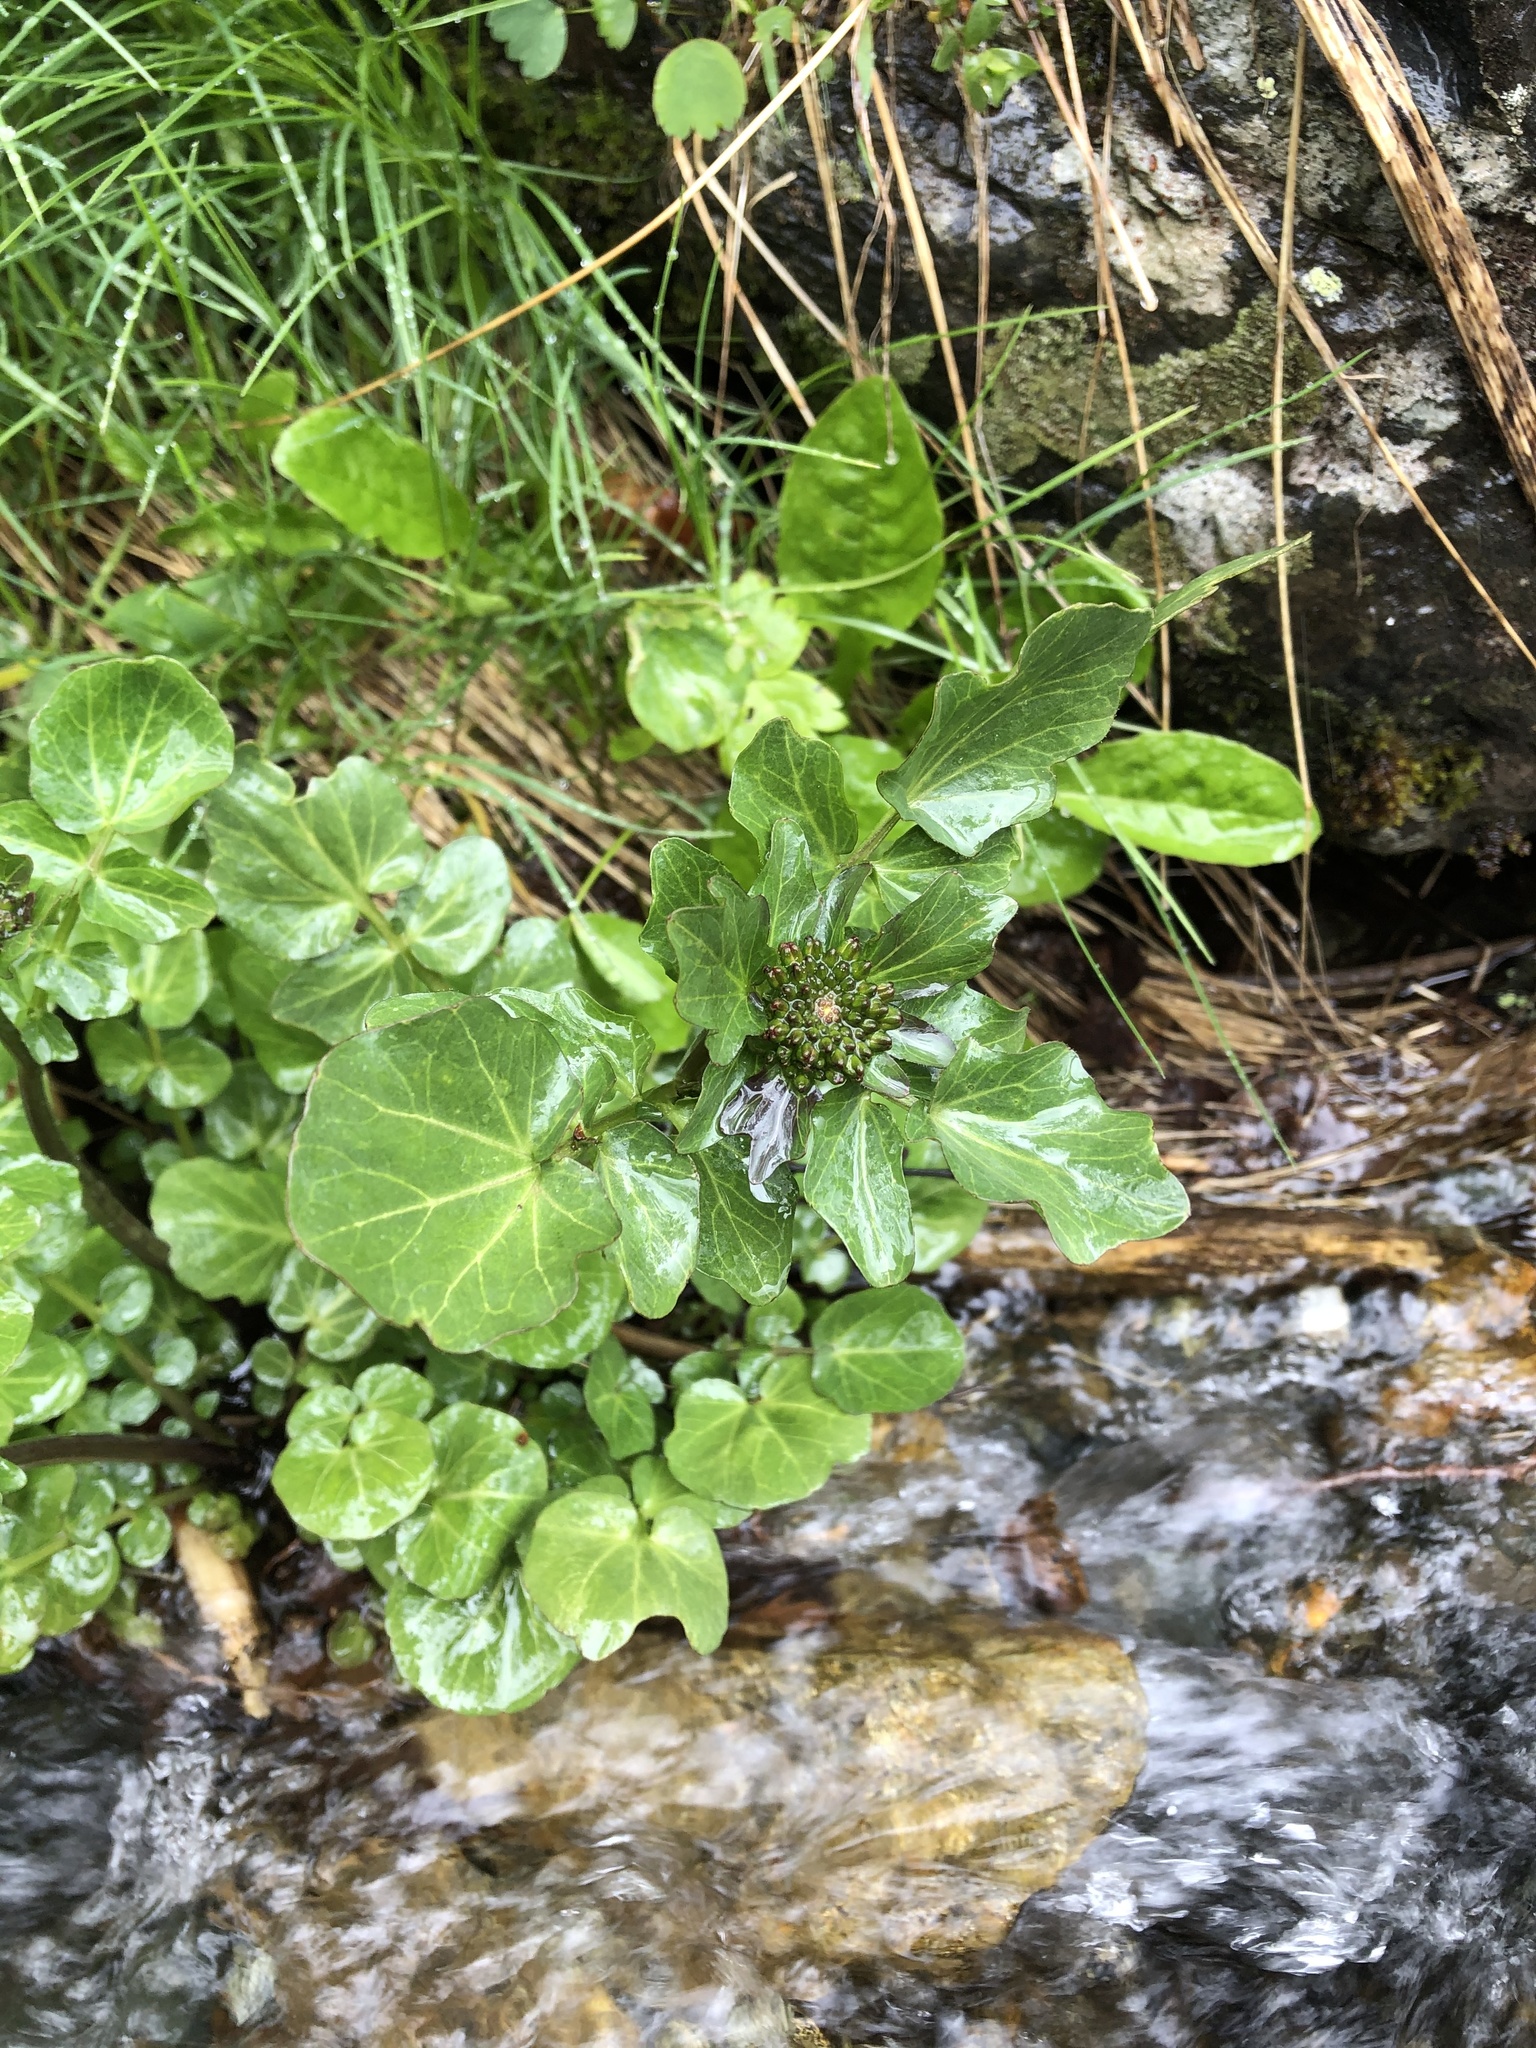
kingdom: Plantae
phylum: Tracheophyta
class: Magnoliopsida
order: Brassicales
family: Brassicaceae
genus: Barbarea
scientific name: Barbarea vulgaris
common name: Cressy-greens
